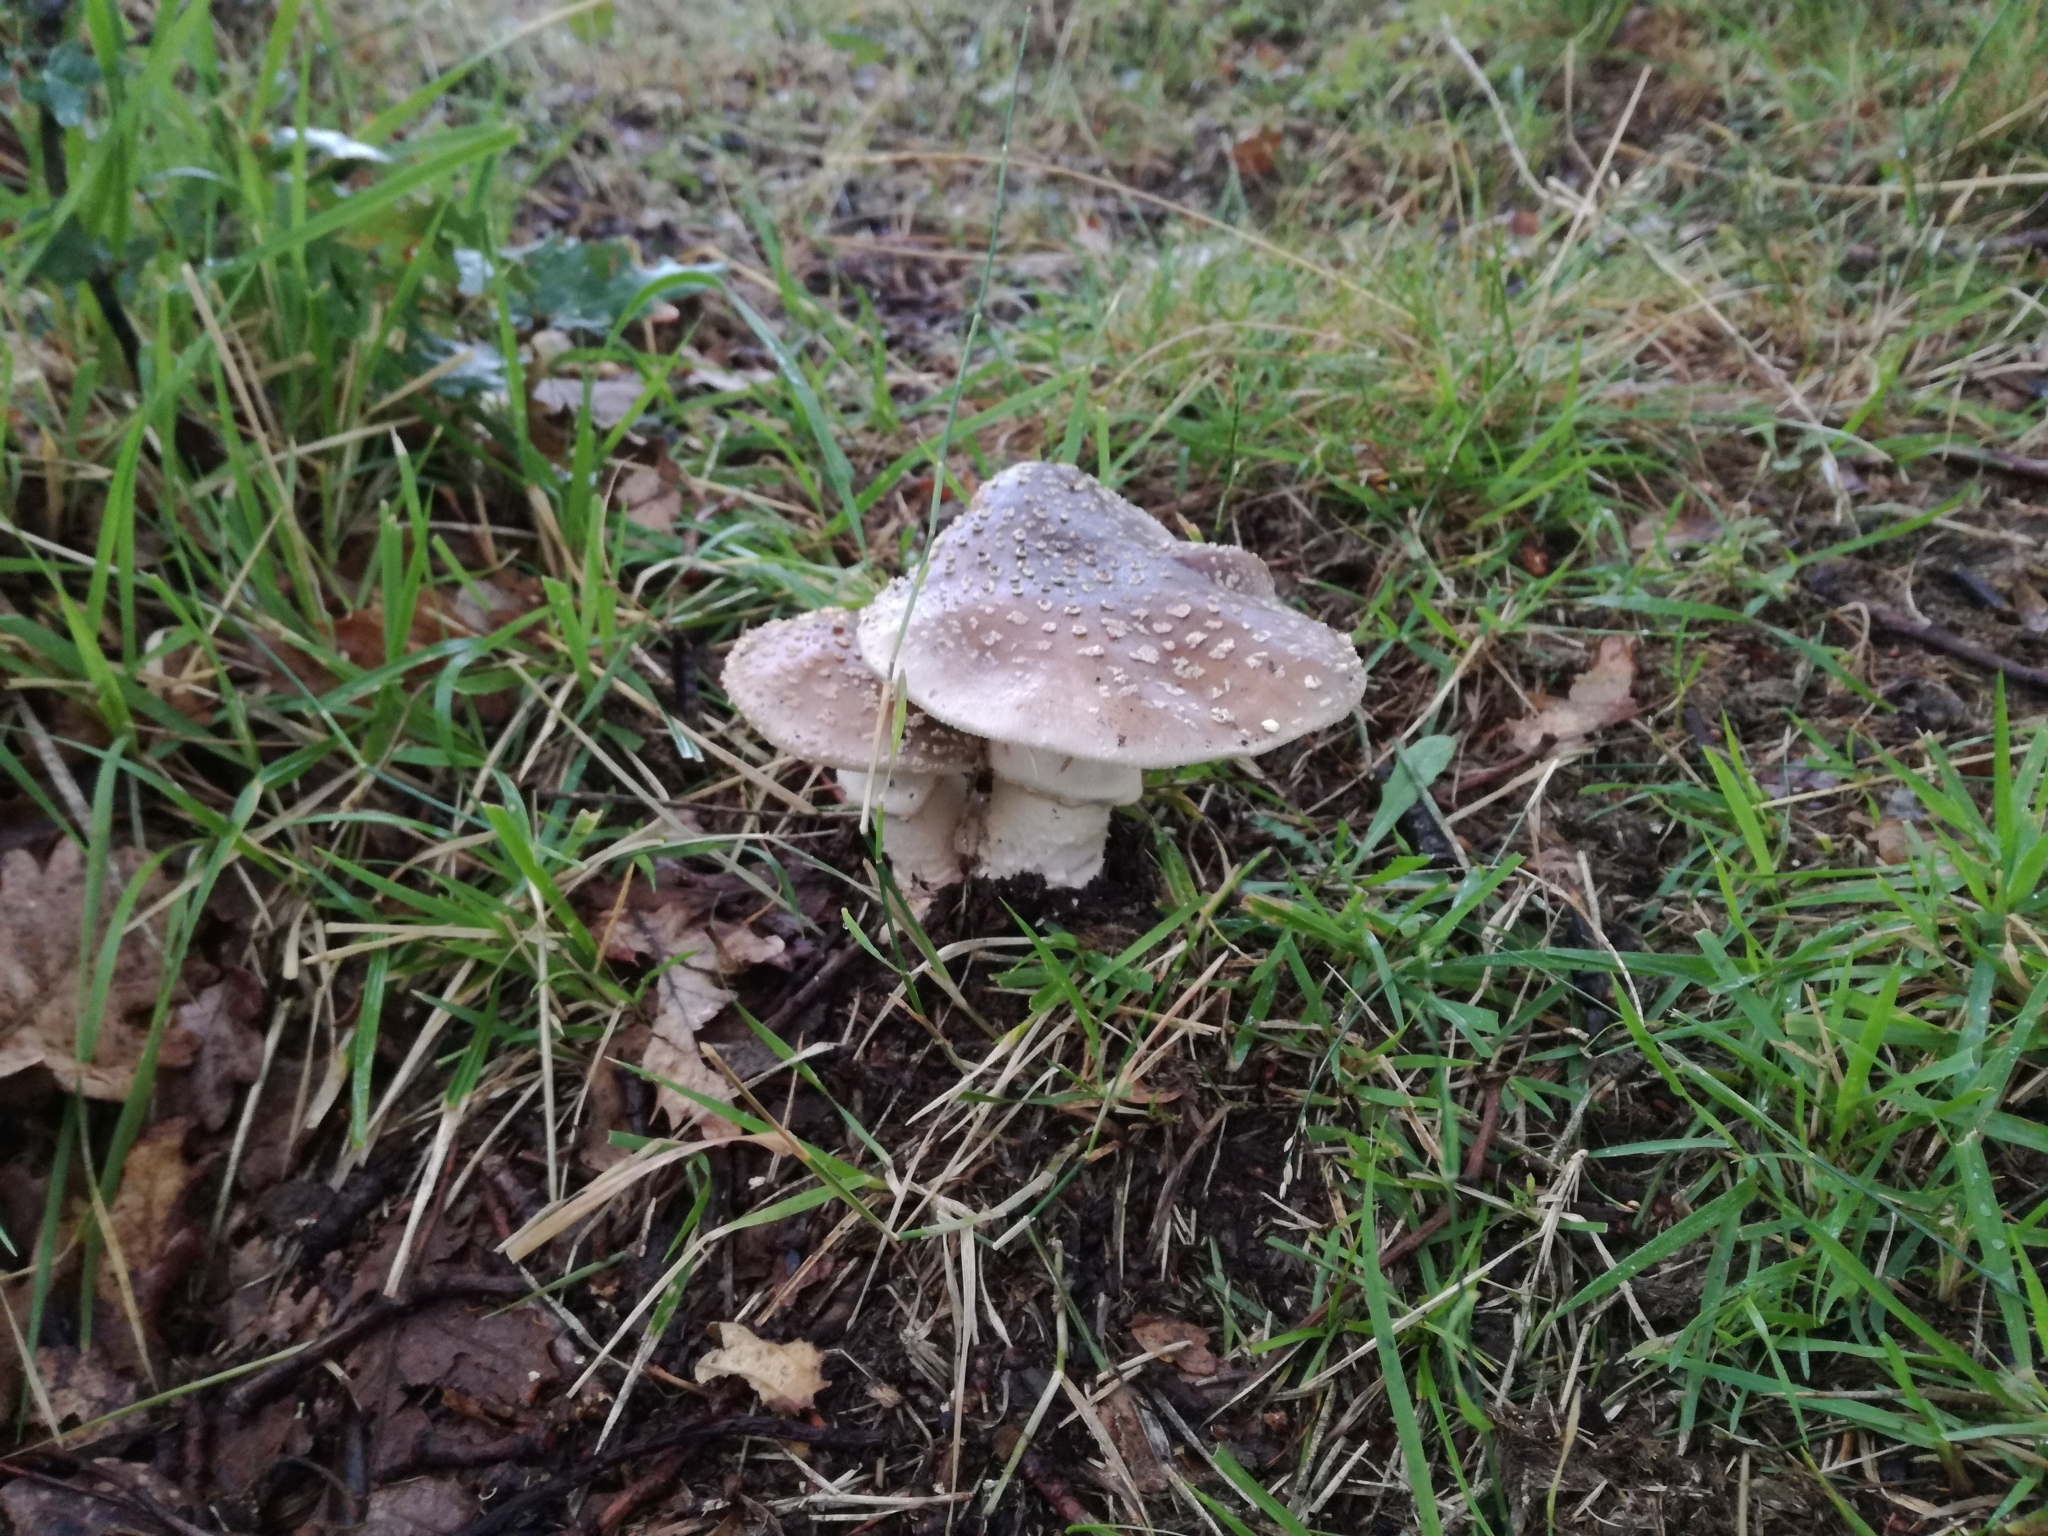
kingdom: Fungi
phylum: Basidiomycota
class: Agaricomycetes
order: Agaricales
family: Amanitaceae
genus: Amanita
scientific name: Amanita excelsa
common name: European false blusher
